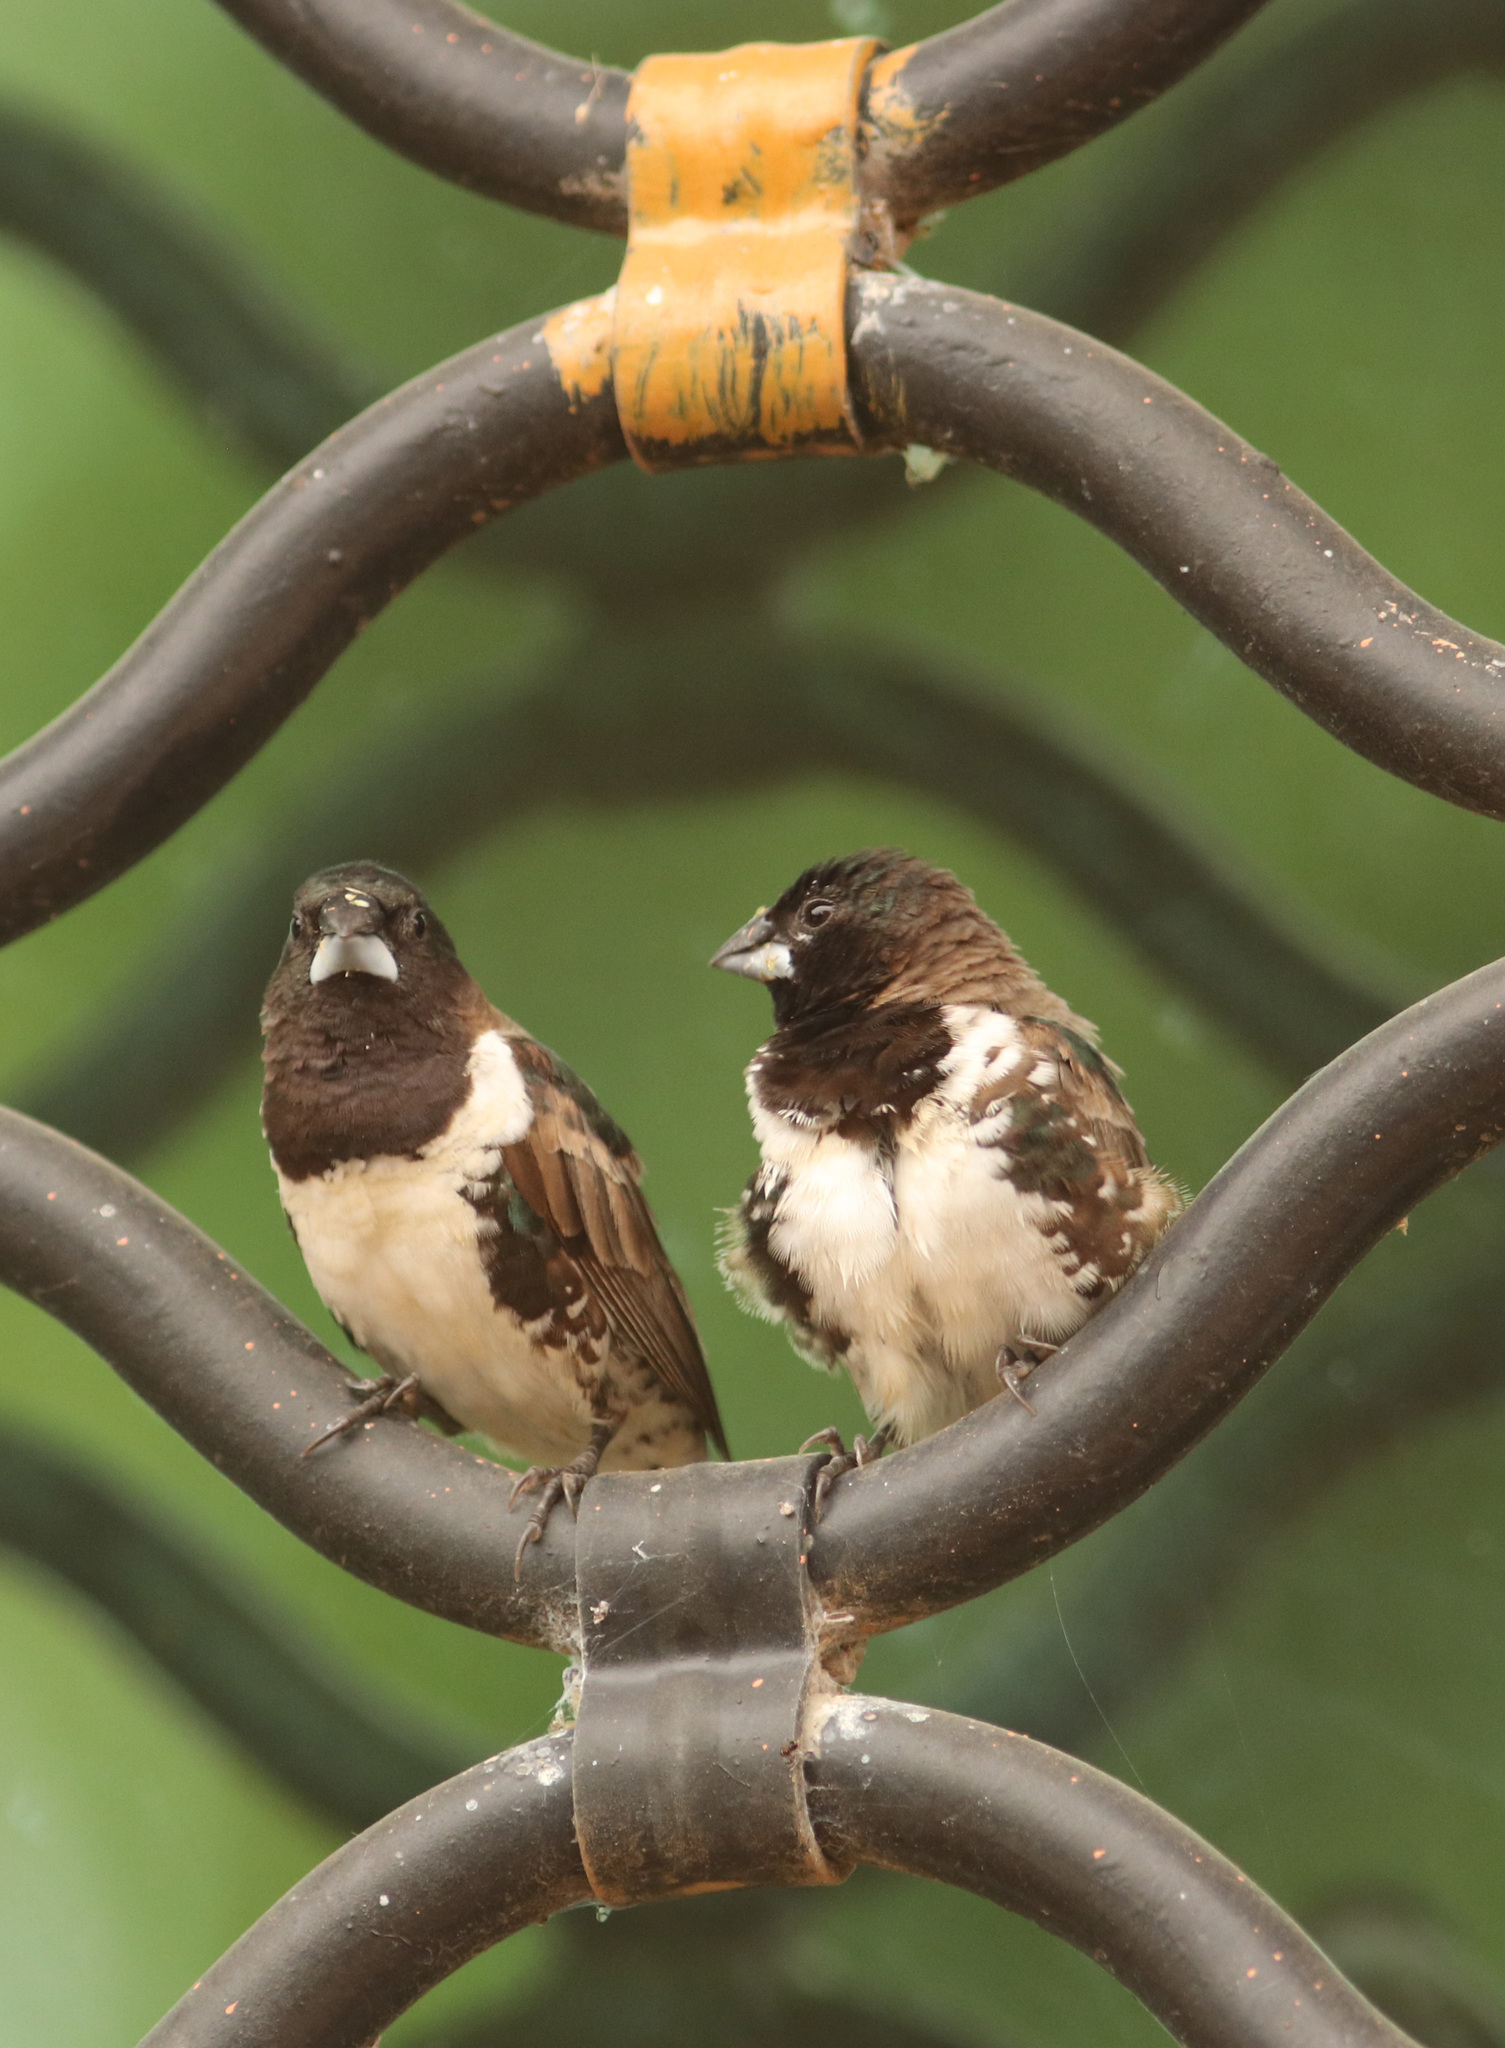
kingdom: Animalia
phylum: Chordata
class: Aves
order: Passeriformes
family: Estrildidae
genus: Lonchura
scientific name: Lonchura cucullata
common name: Bronze mannikin
